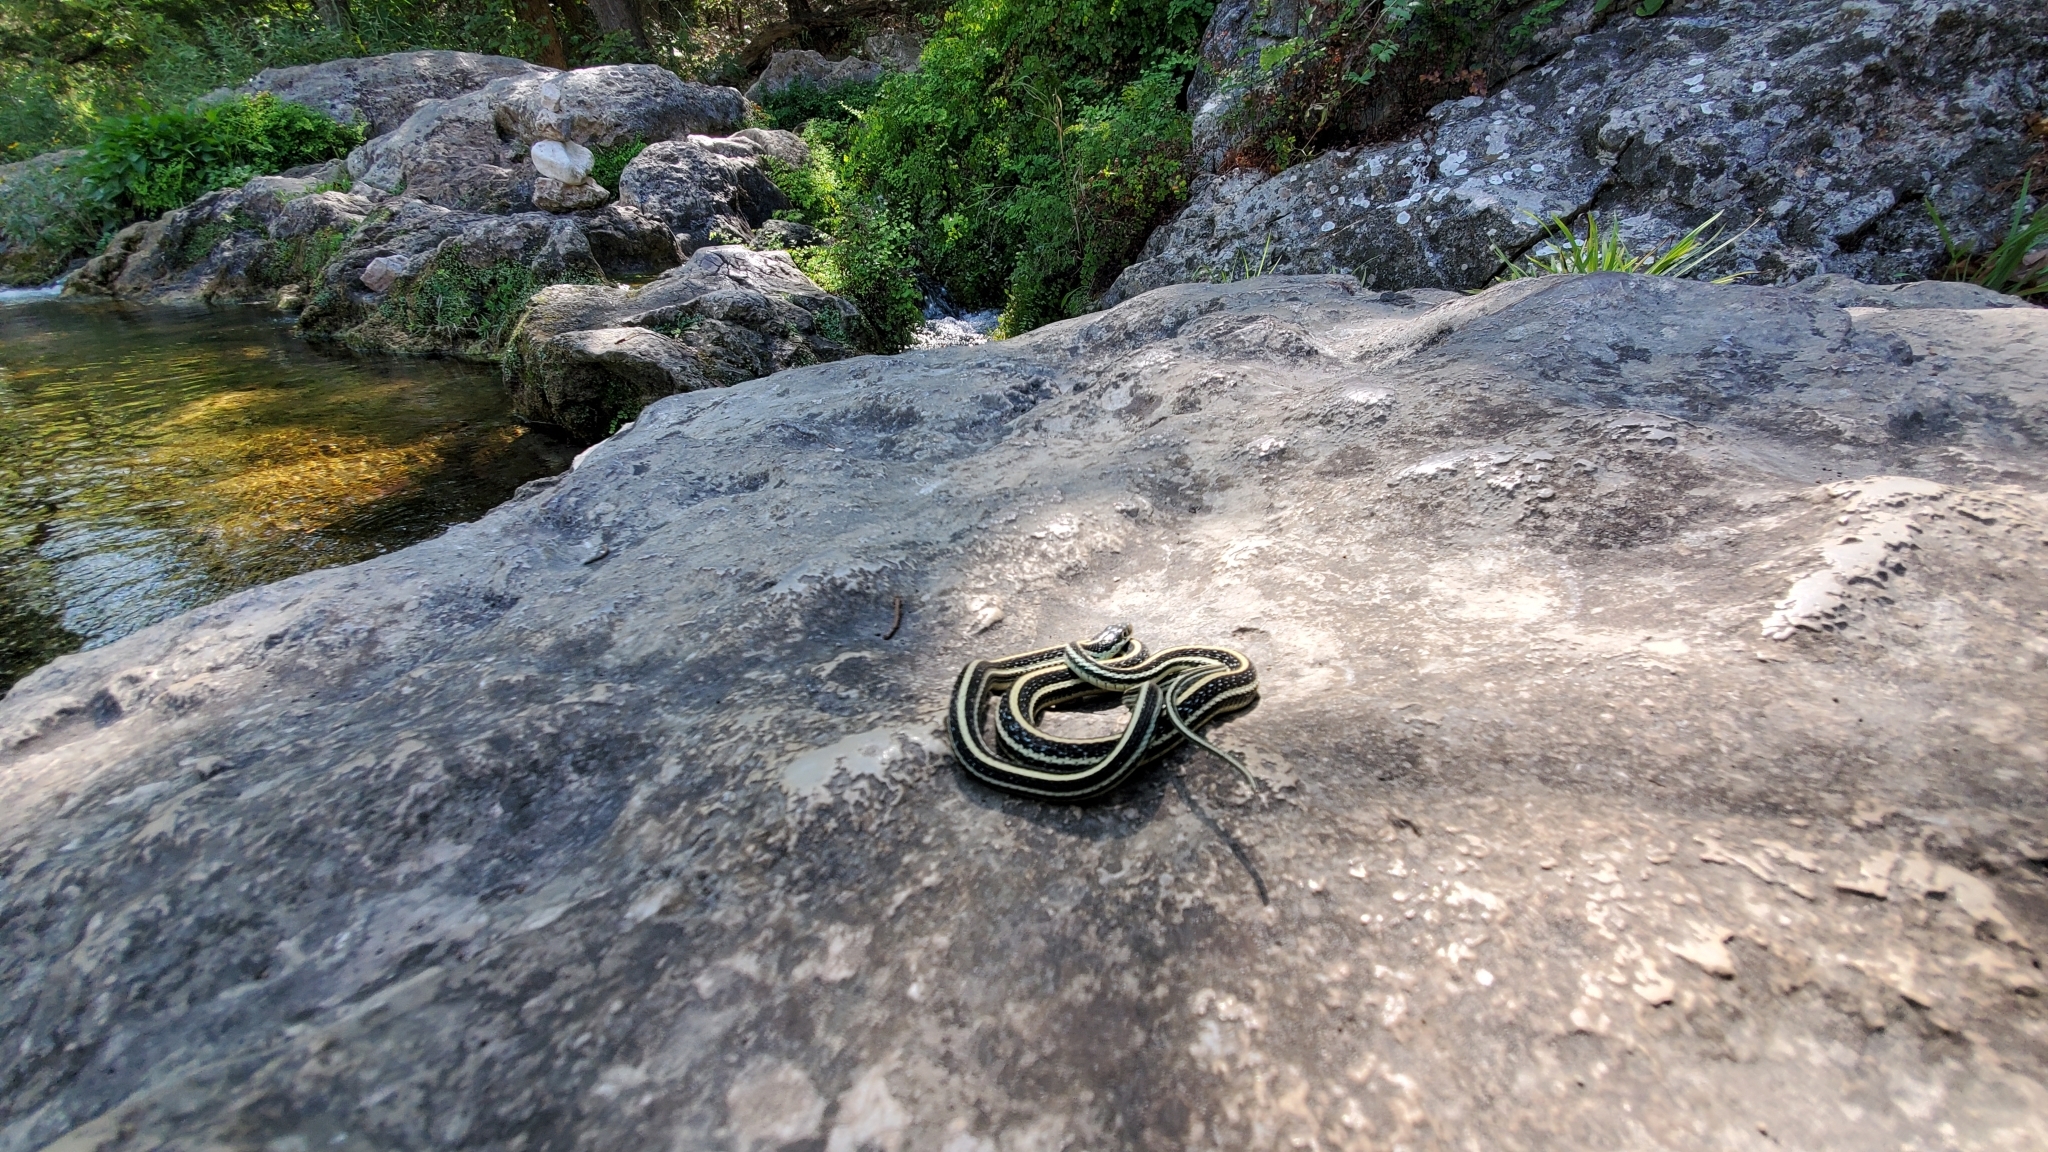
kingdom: Animalia
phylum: Chordata
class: Squamata
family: Colubridae
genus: Thamnophis
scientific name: Thamnophis proximus
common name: Western ribbon snake
